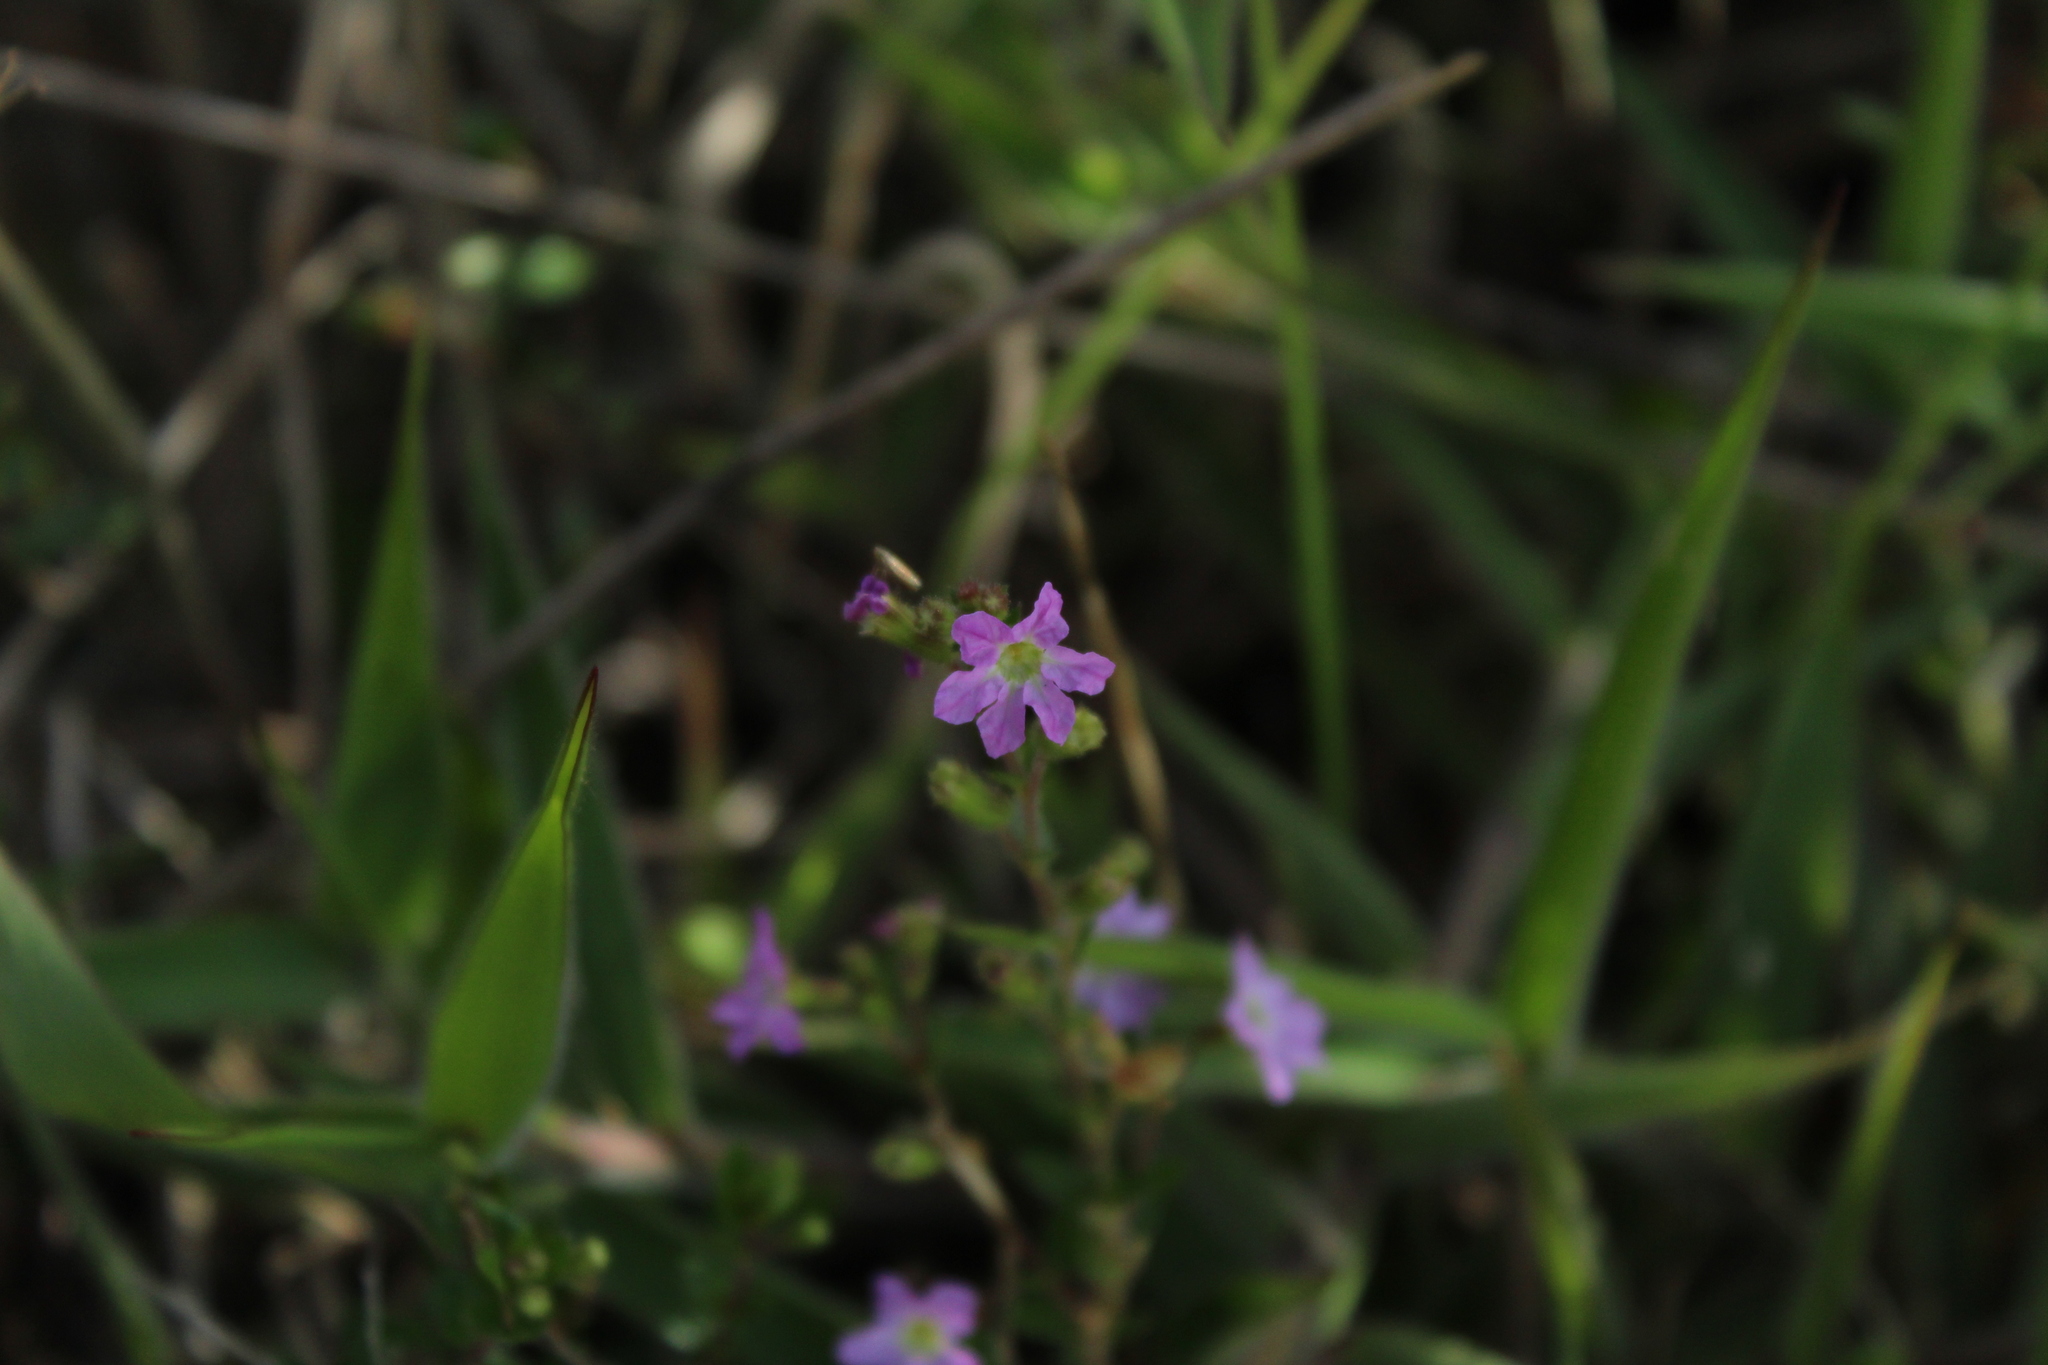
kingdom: Plantae
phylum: Tracheophyta
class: Magnoliopsida
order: Myrtales
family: Lythraceae
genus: Cuphea
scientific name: Cuphea ciliata
